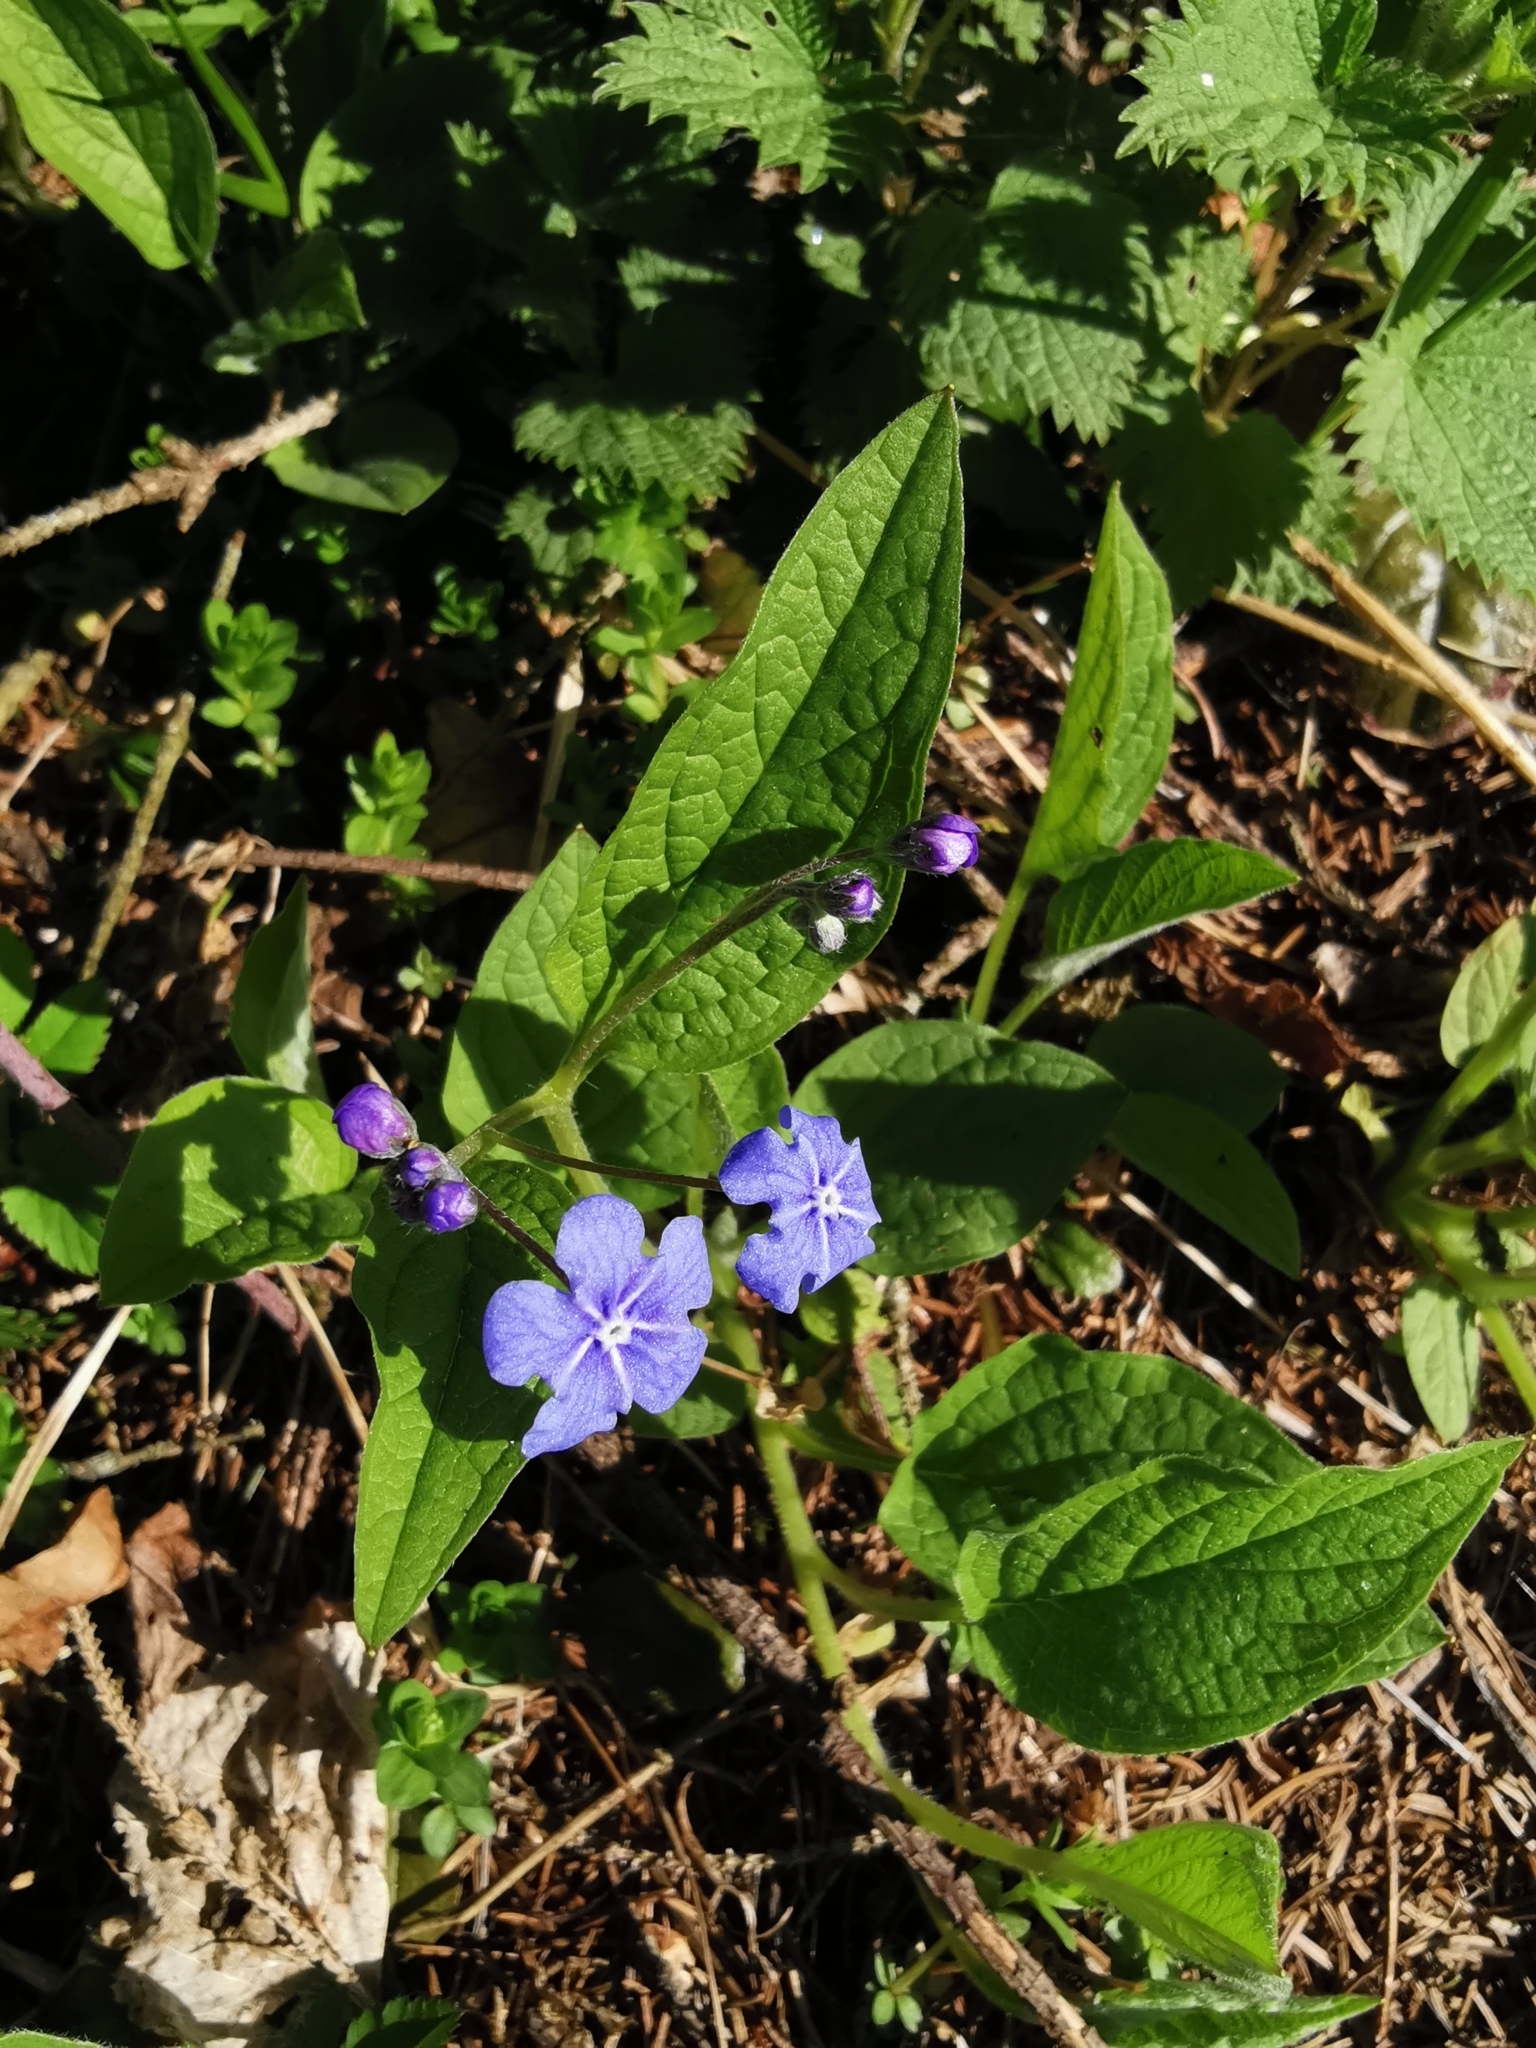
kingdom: Plantae
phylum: Tracheophyta
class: Magnoliopsida
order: Boraginales
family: Boraginaceae
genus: Omphalodes
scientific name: Omphalodes verna
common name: Blue-eyed-mary
